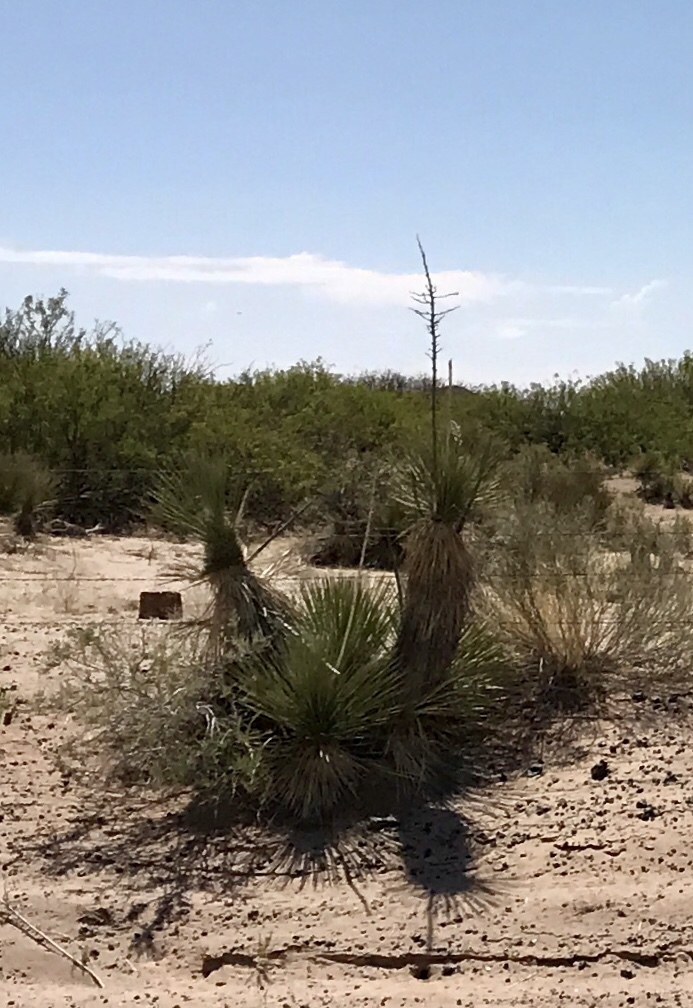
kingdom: Plantae
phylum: Tracheophyta
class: Liliopsida
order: Asparagales
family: Asparagaceae
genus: Yucca
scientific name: Yucca elata
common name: Palmella
